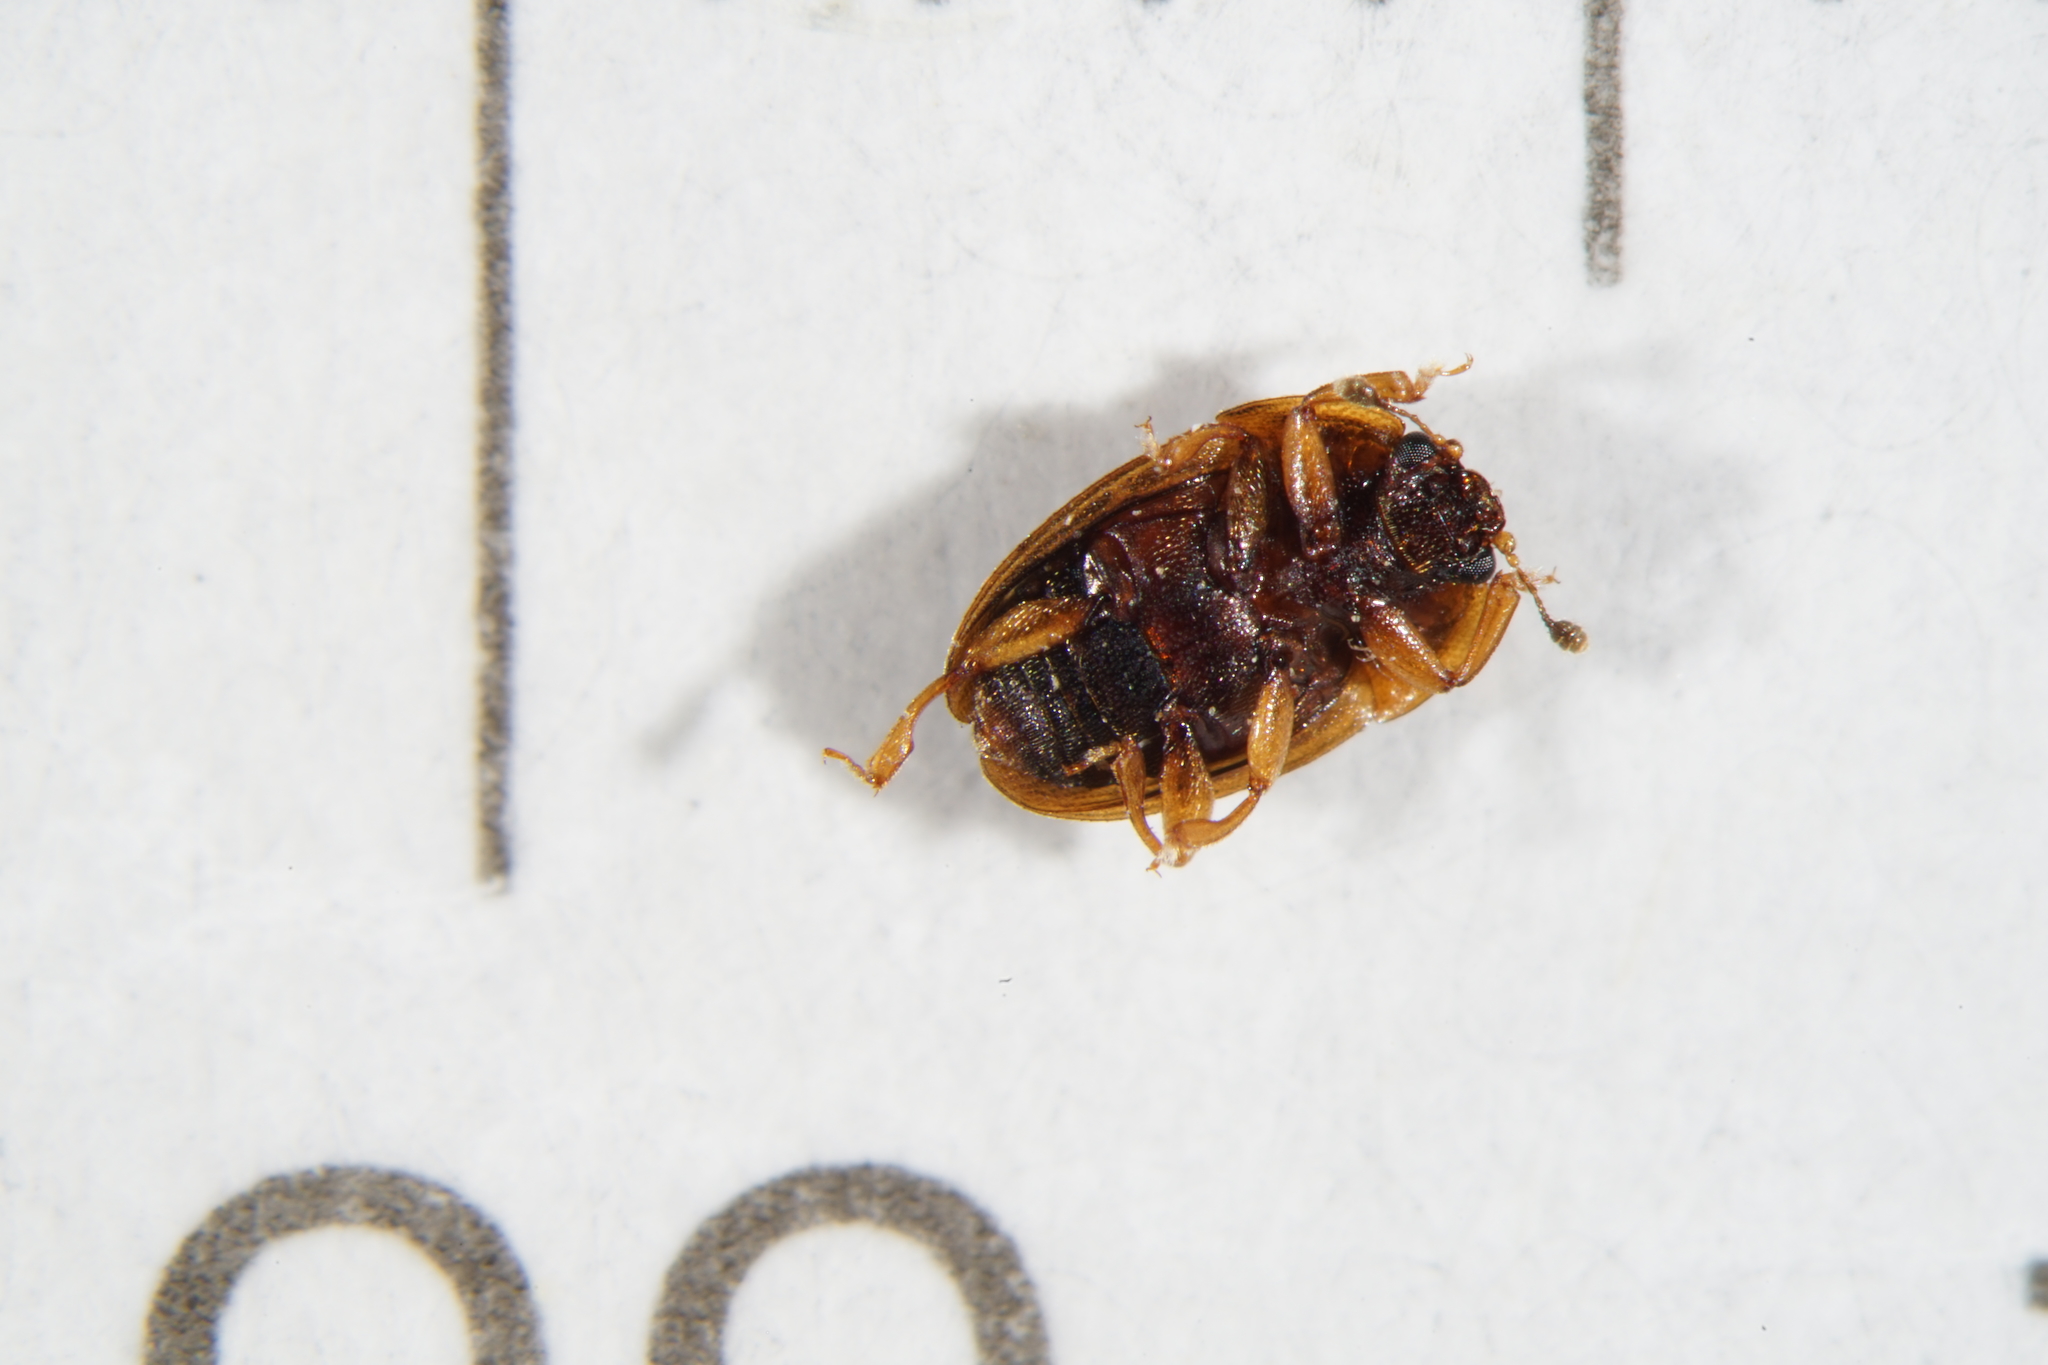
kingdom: Animalia
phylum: Arthropoda
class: Insecta
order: Coleoptera
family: Nitidulidae
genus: Stelidota
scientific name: Stelidota geminata
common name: Strawberry sap beetle
